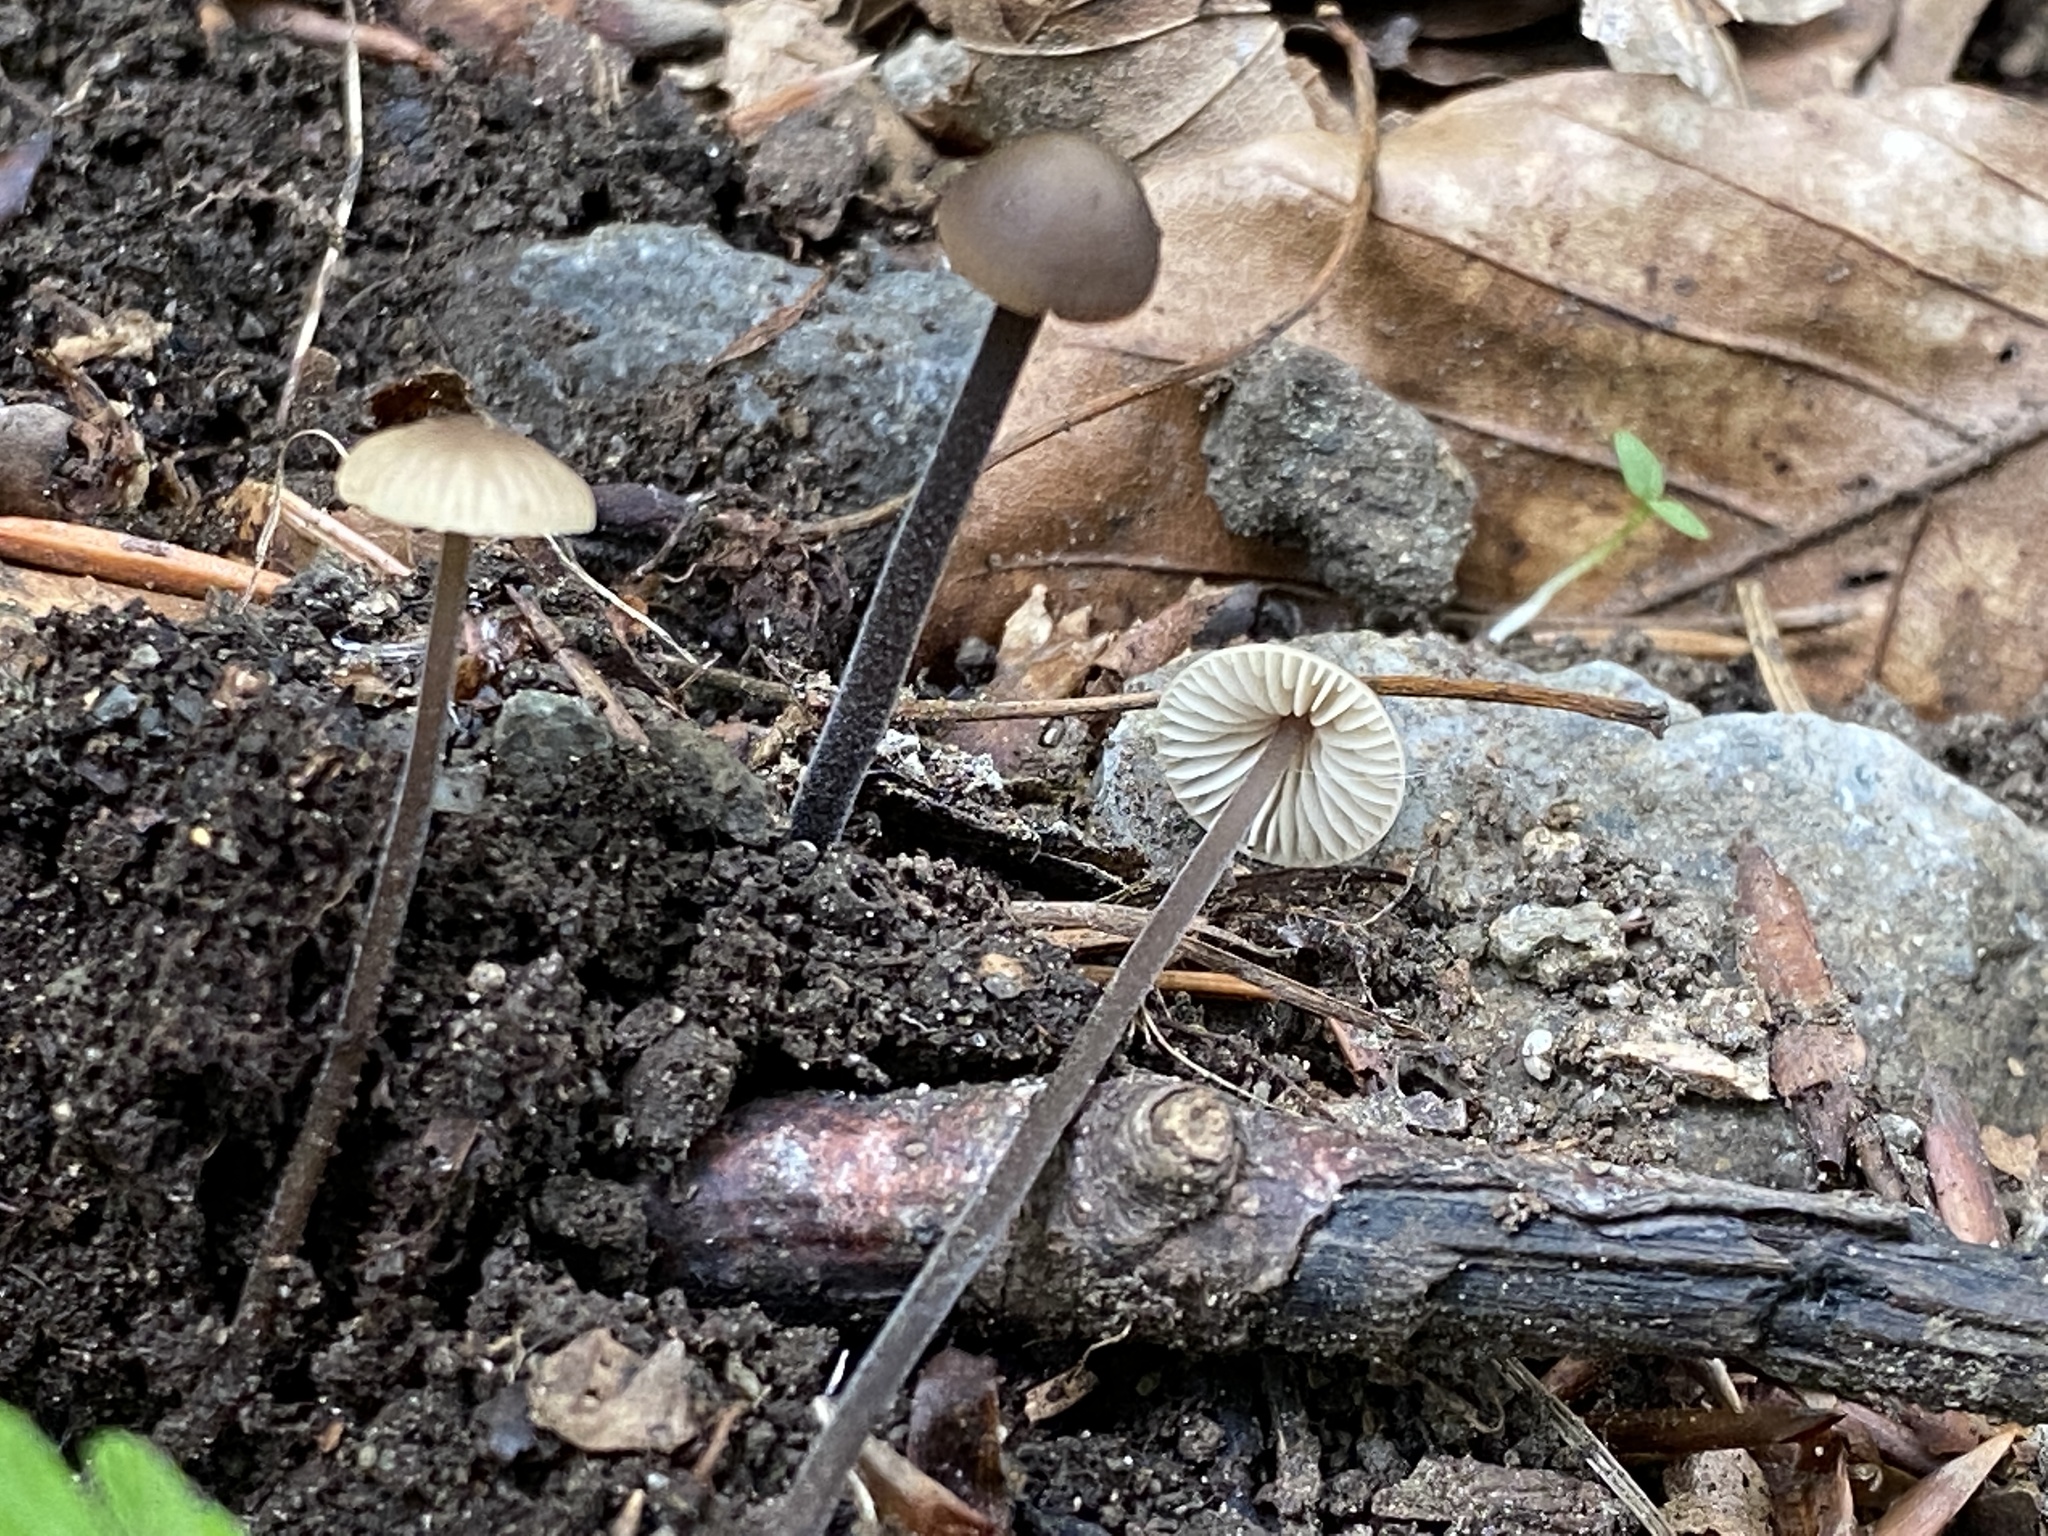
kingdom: Fungi
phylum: Basidiomycota
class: Agaricomycetes
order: Agaricales
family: Omphalotaceae
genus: Mycetinis
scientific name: Mycetinis alliaceus
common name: Garlic parachute
